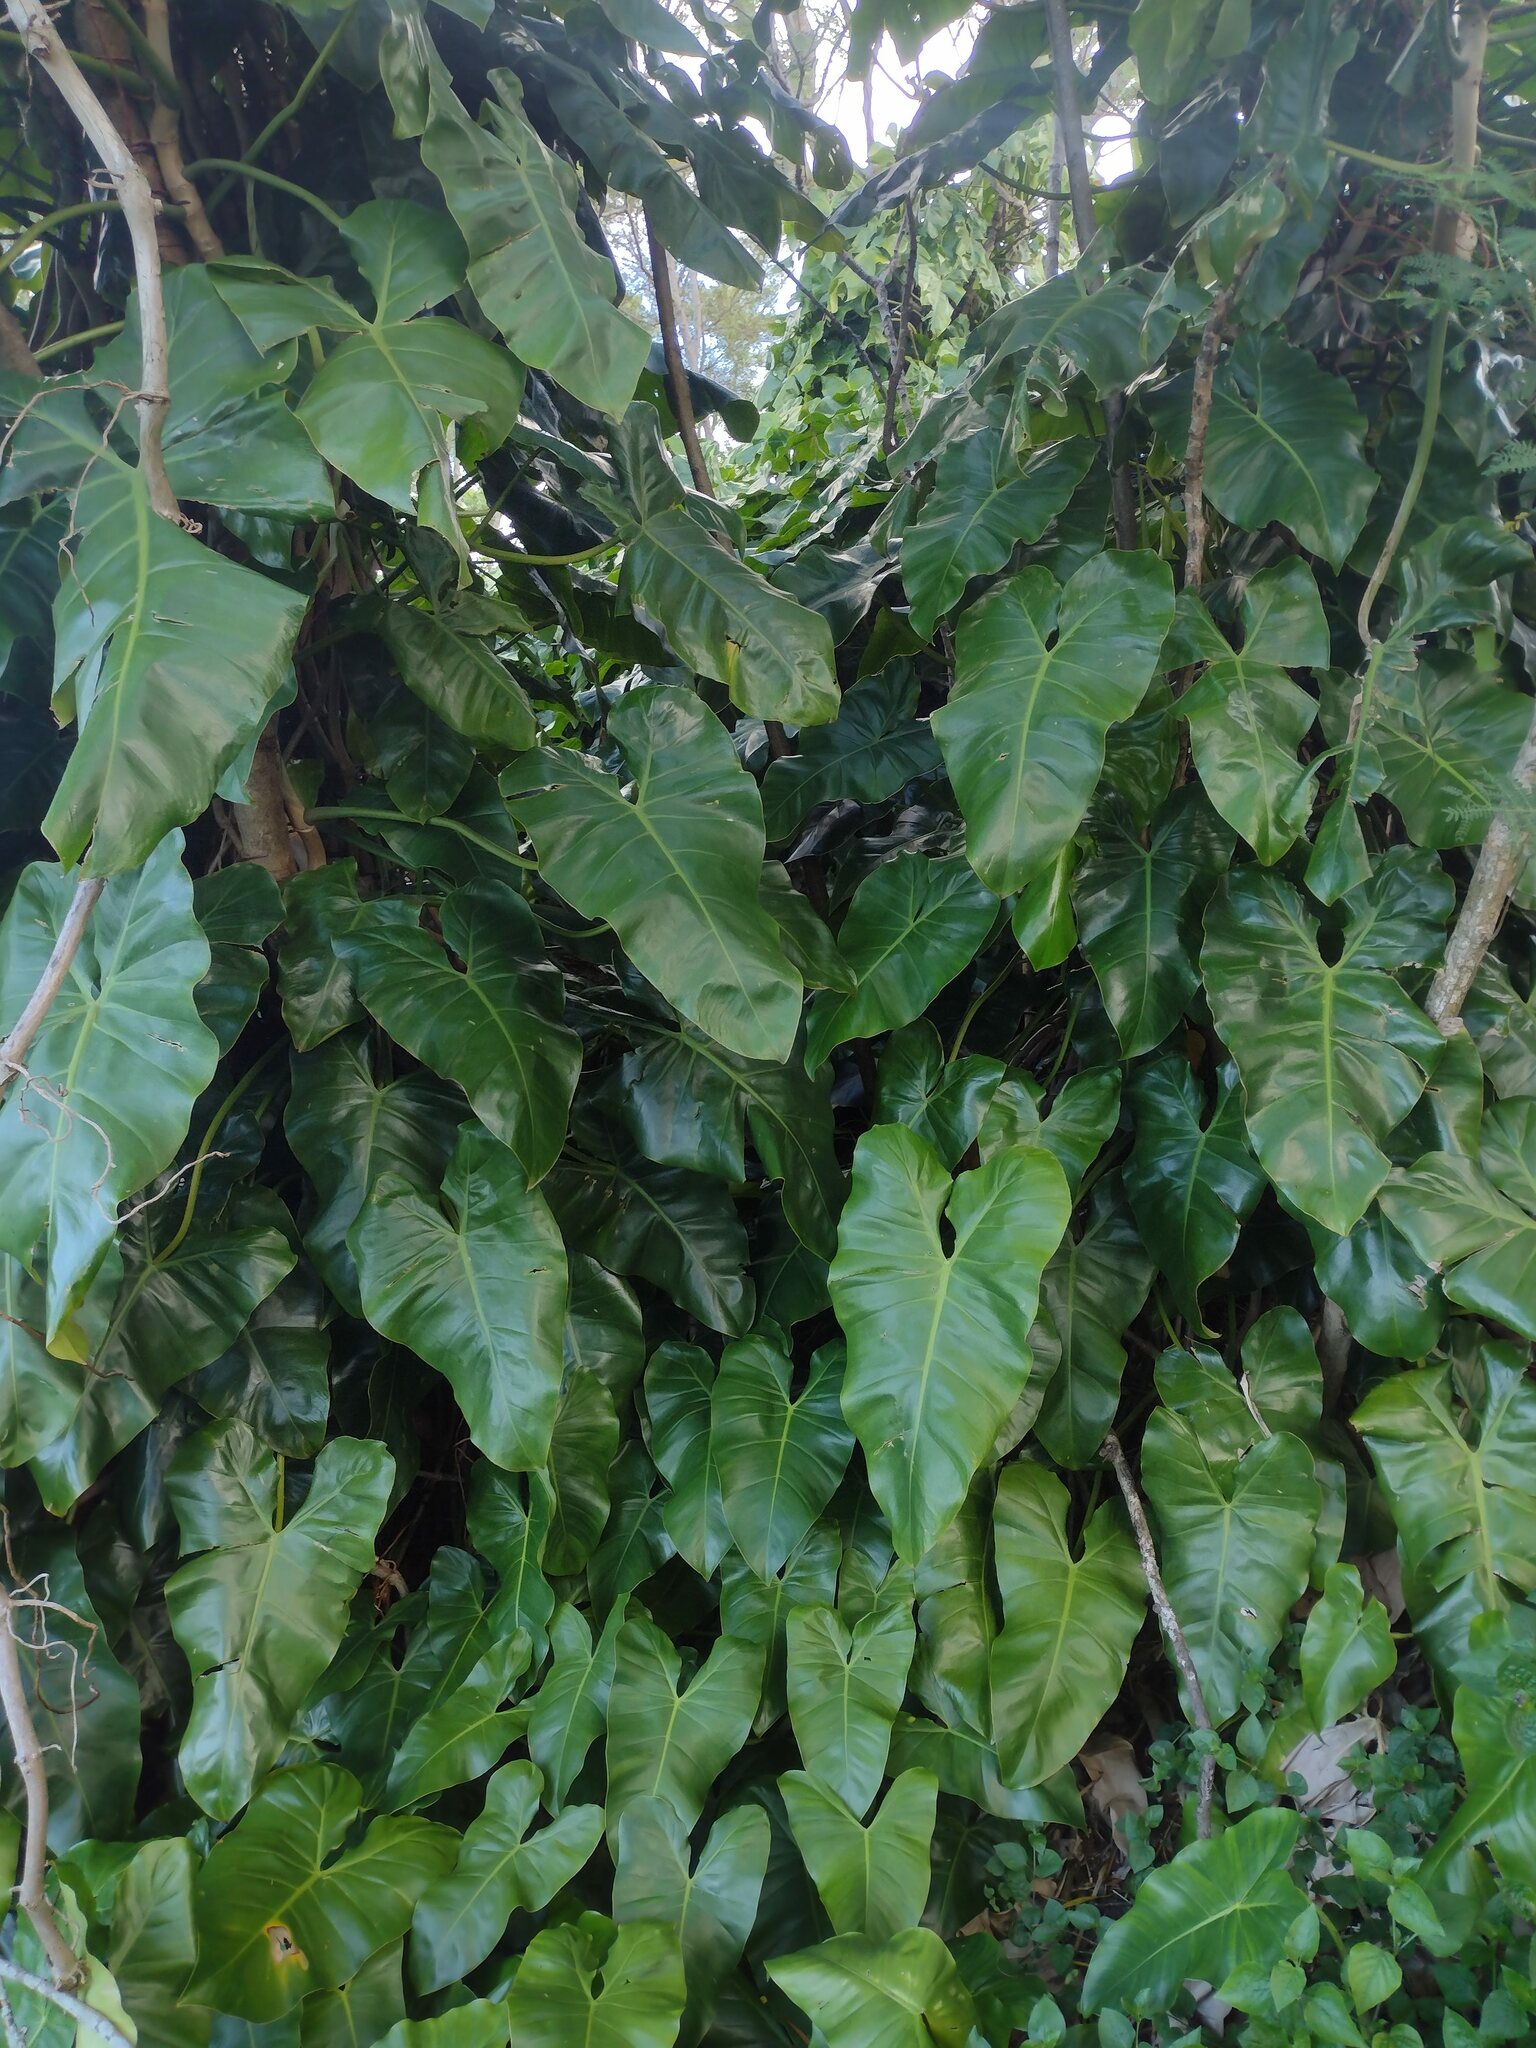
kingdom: Plantae
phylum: Tracheophyta
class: Liliopsida
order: Alismatales
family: Araceae
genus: Philodendron
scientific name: Philodendron erubescens
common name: Philodendron
